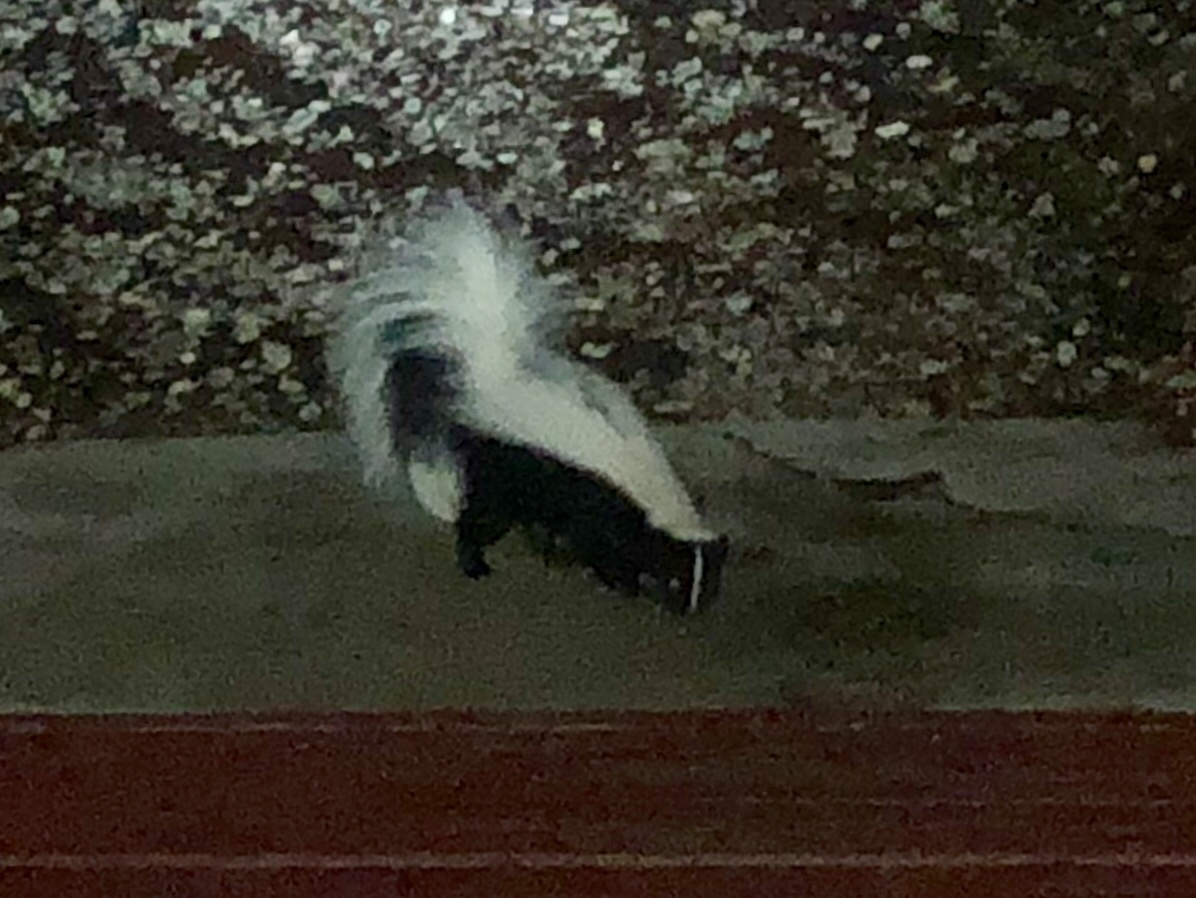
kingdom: Animalia
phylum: Chordata
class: Mammalia
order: Carnivora
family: Mephitidae
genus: Mephitis
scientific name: Mephitis mephitis
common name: Striped skunk
